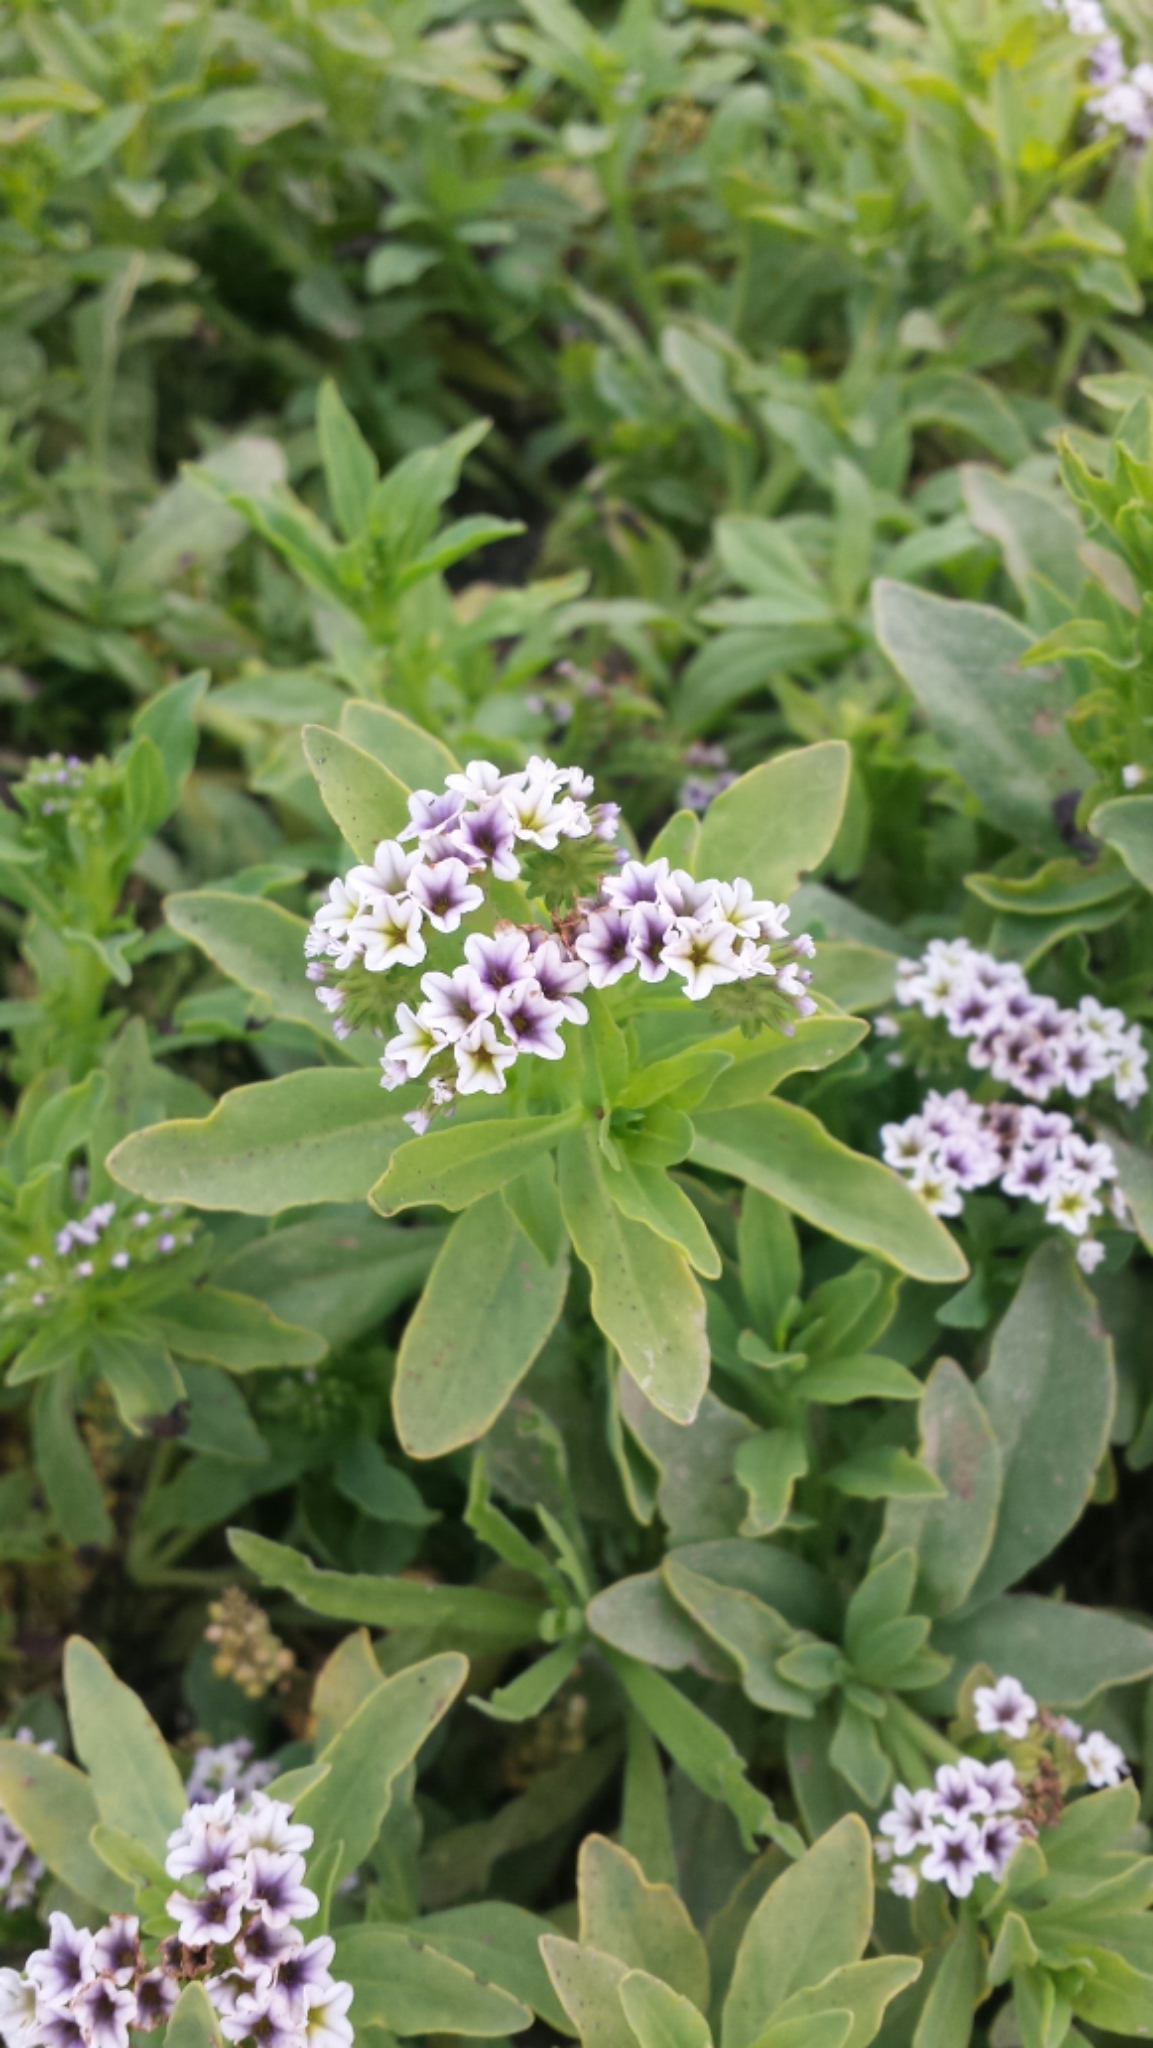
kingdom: Plantae
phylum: Tracheophyta
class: Magnoliopsida
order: Boraginales
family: Heliotropiaceae
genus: Heliotropium
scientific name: Heliotropium curassavicum
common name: Seaside heliotrope
